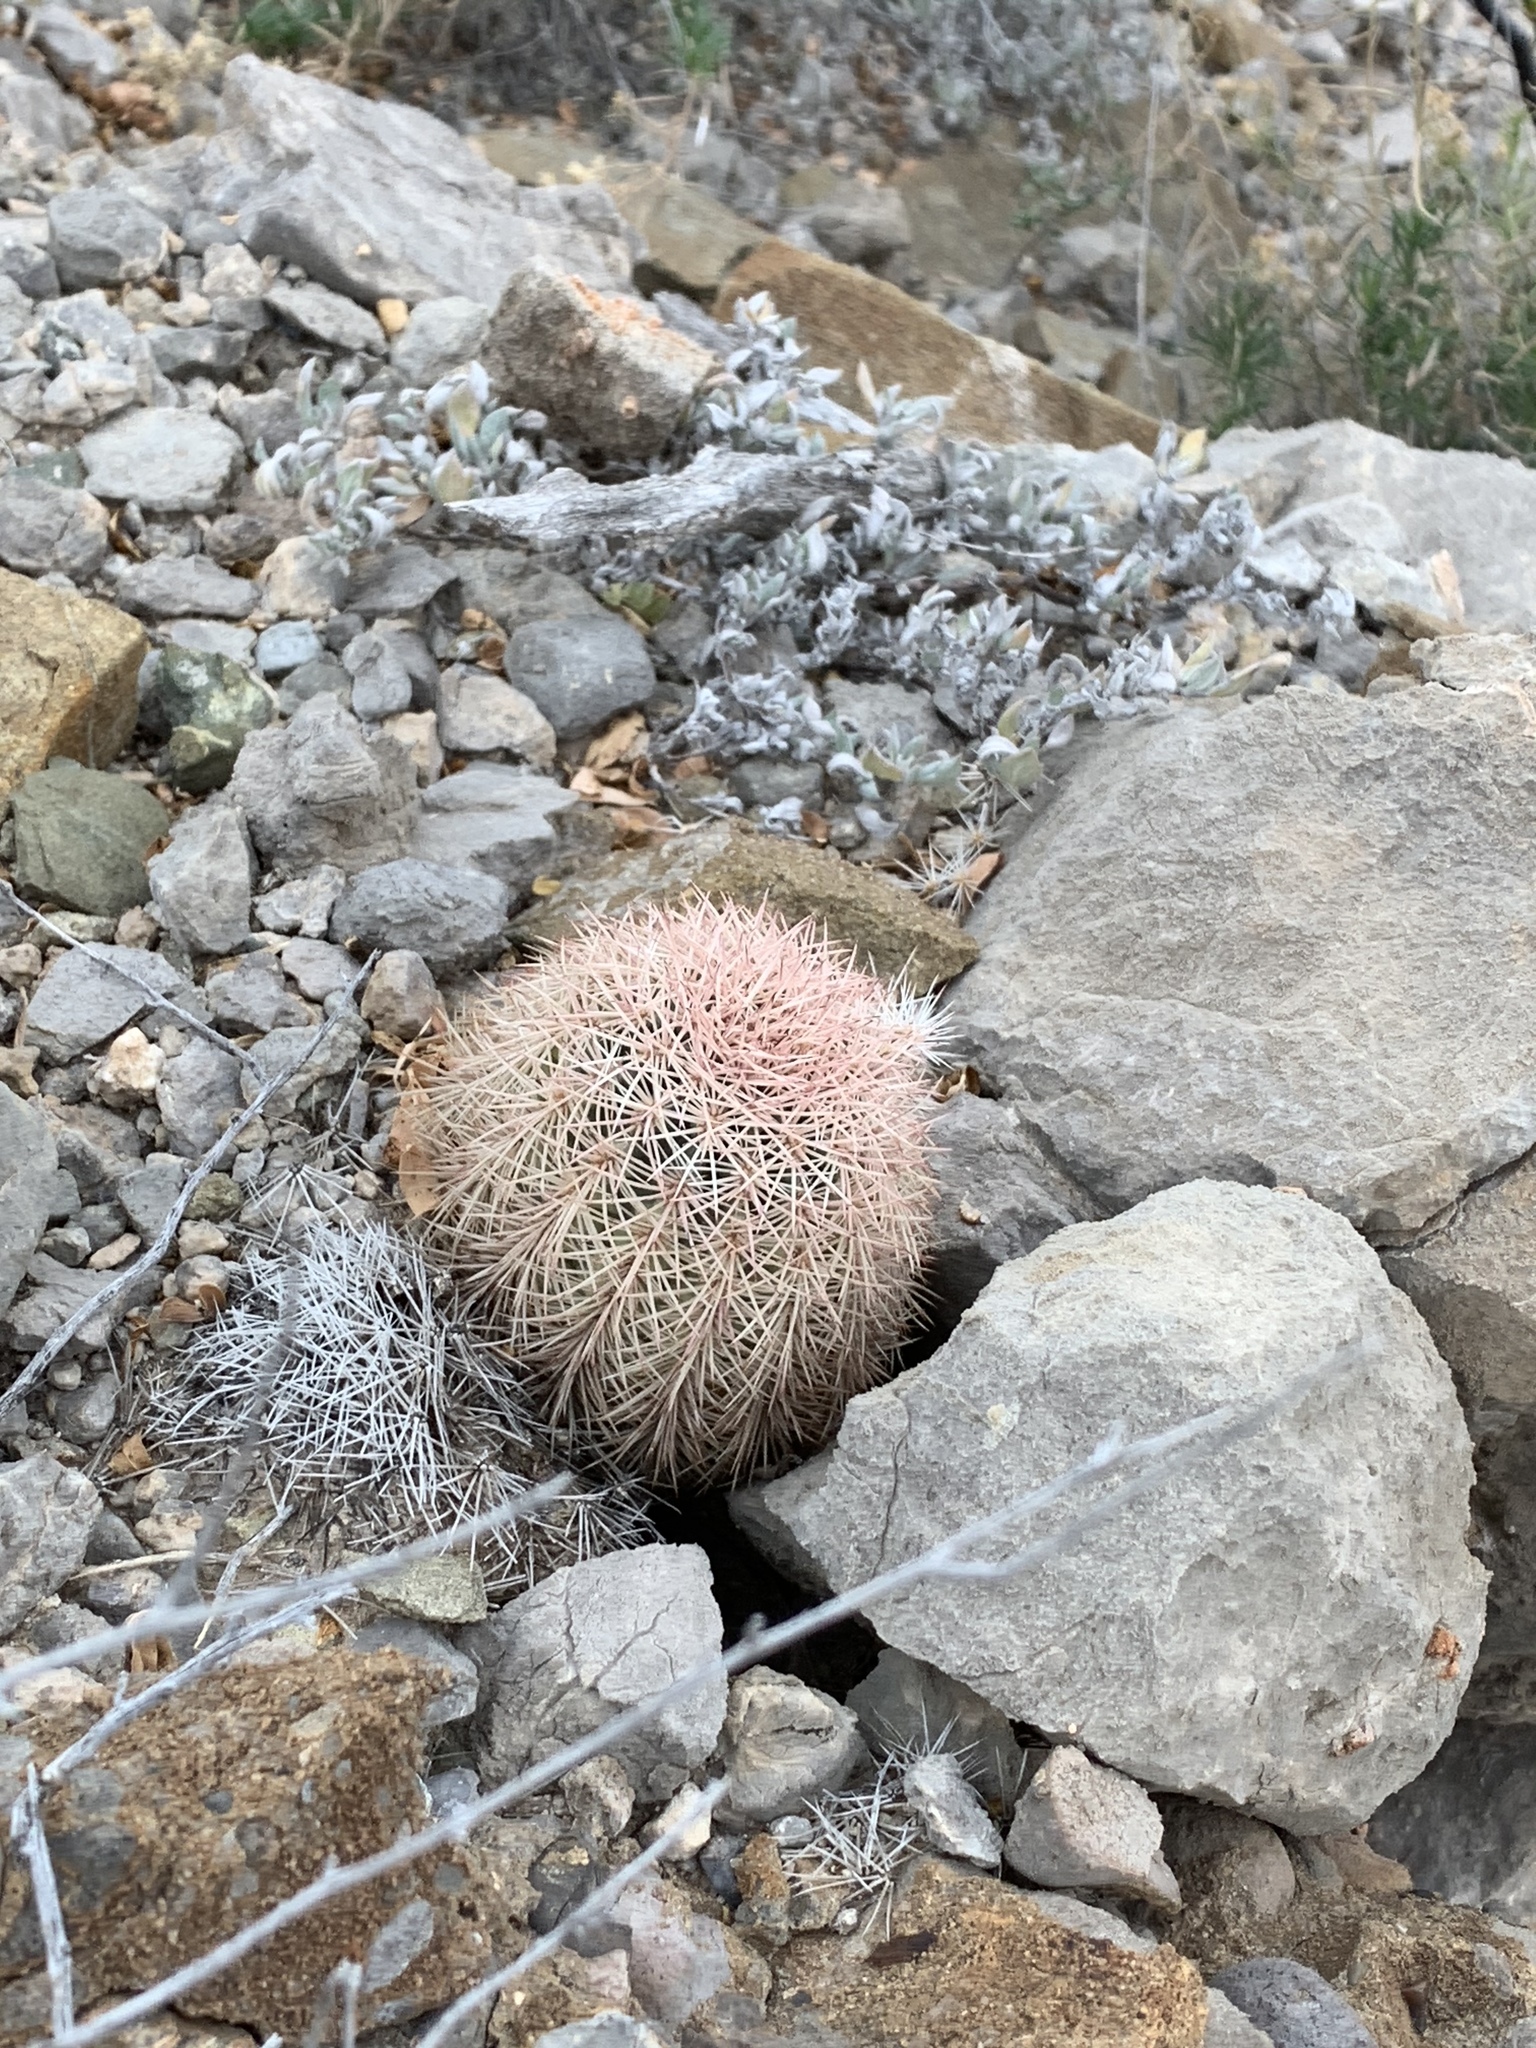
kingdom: Plantae
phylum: Tracheophyta
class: Magnoliopsida
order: Caryophyllales
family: Cactaceae
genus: Echinocereus
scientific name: Echinocereus dasyacanthus
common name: Spiny hedgehog cactus
